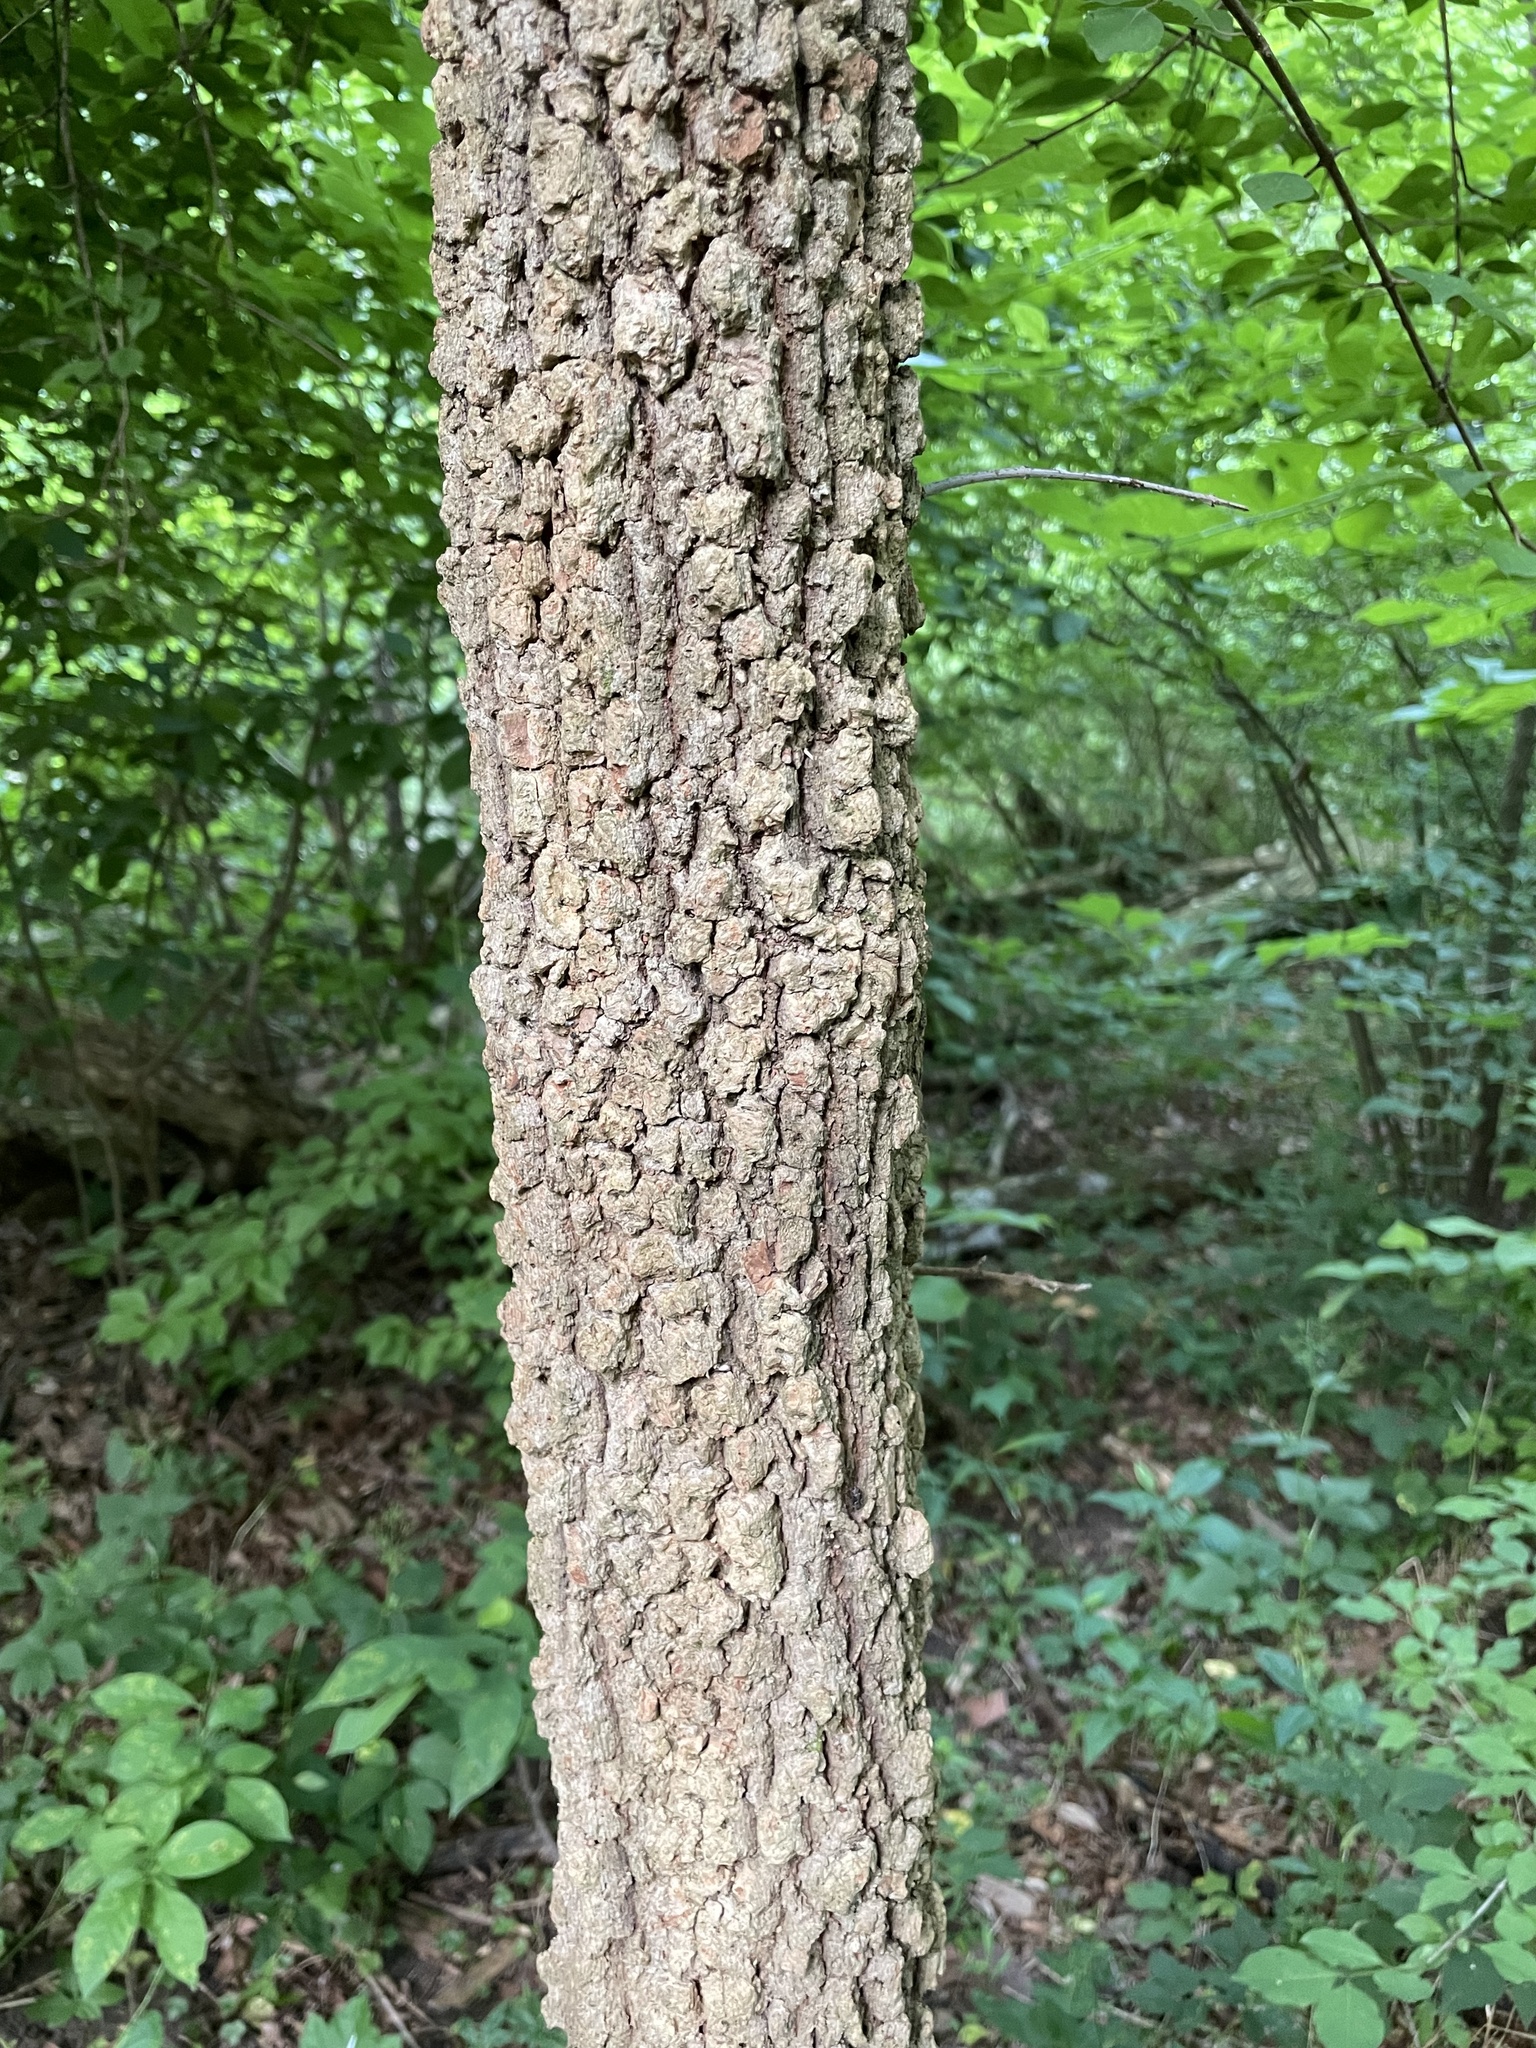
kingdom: Plantae
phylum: Tracheophyta
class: Magnoliopsida
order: Dipsacales
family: Viburnaceae
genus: Viburnum
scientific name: Viburnum prunifolium
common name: Black haw
